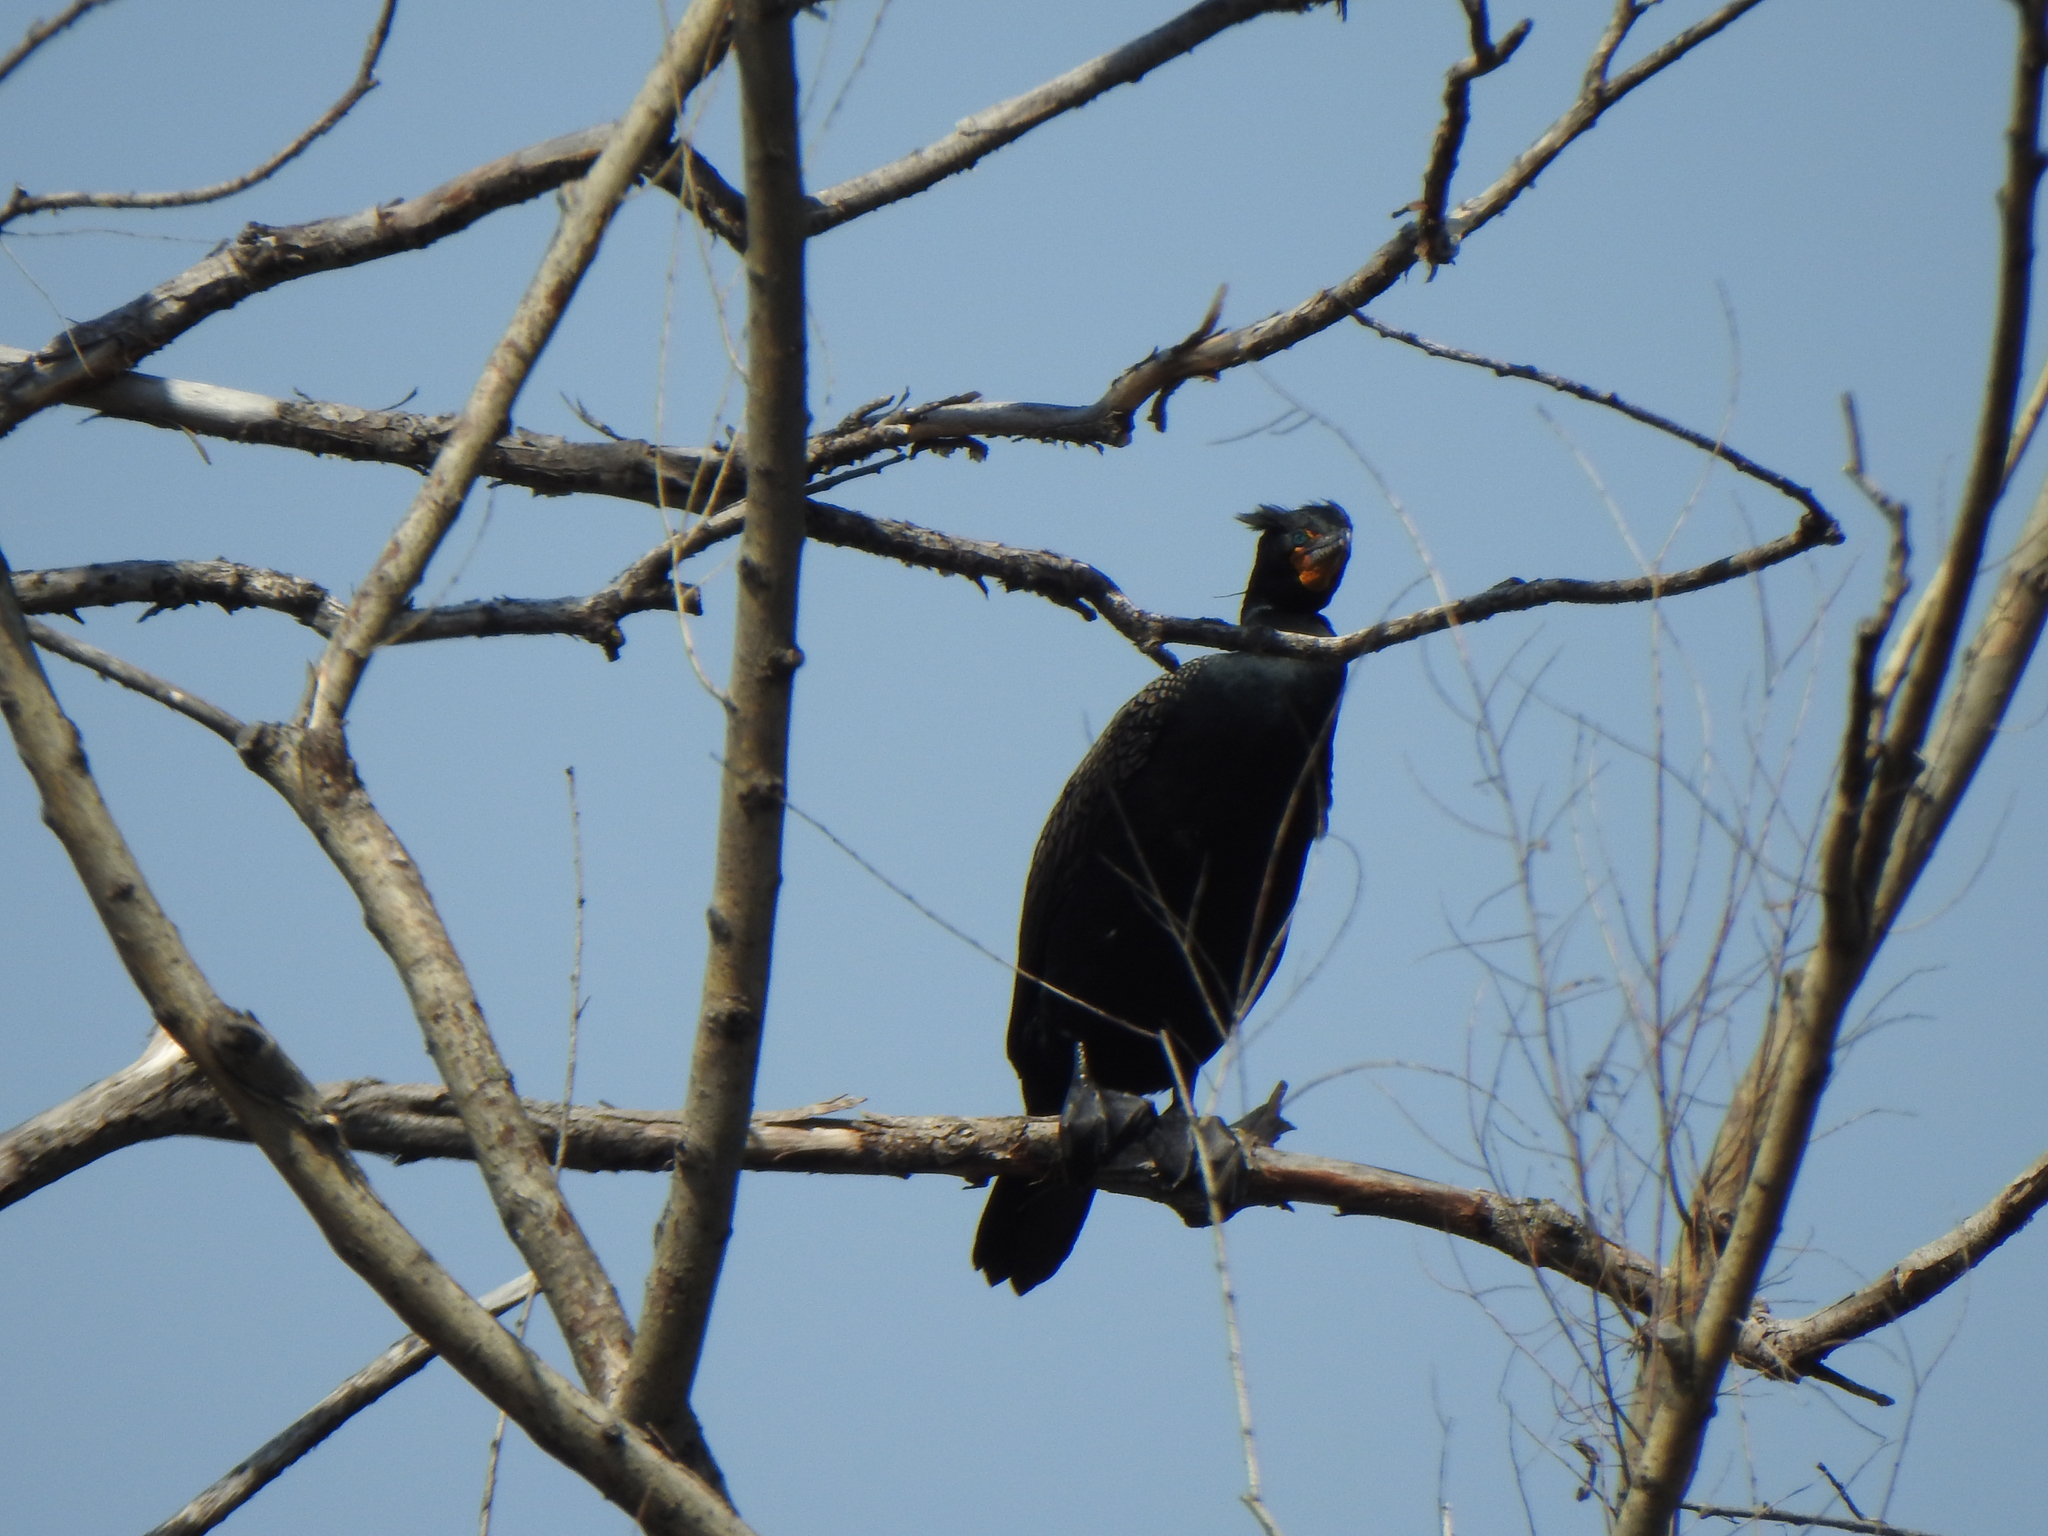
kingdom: Animalia
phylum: Chordata
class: Aves
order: Suliformes
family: Phalacrocoracidae
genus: Phalacrocorax
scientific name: Phalacrocorax auritus
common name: Double-crested cormorant
